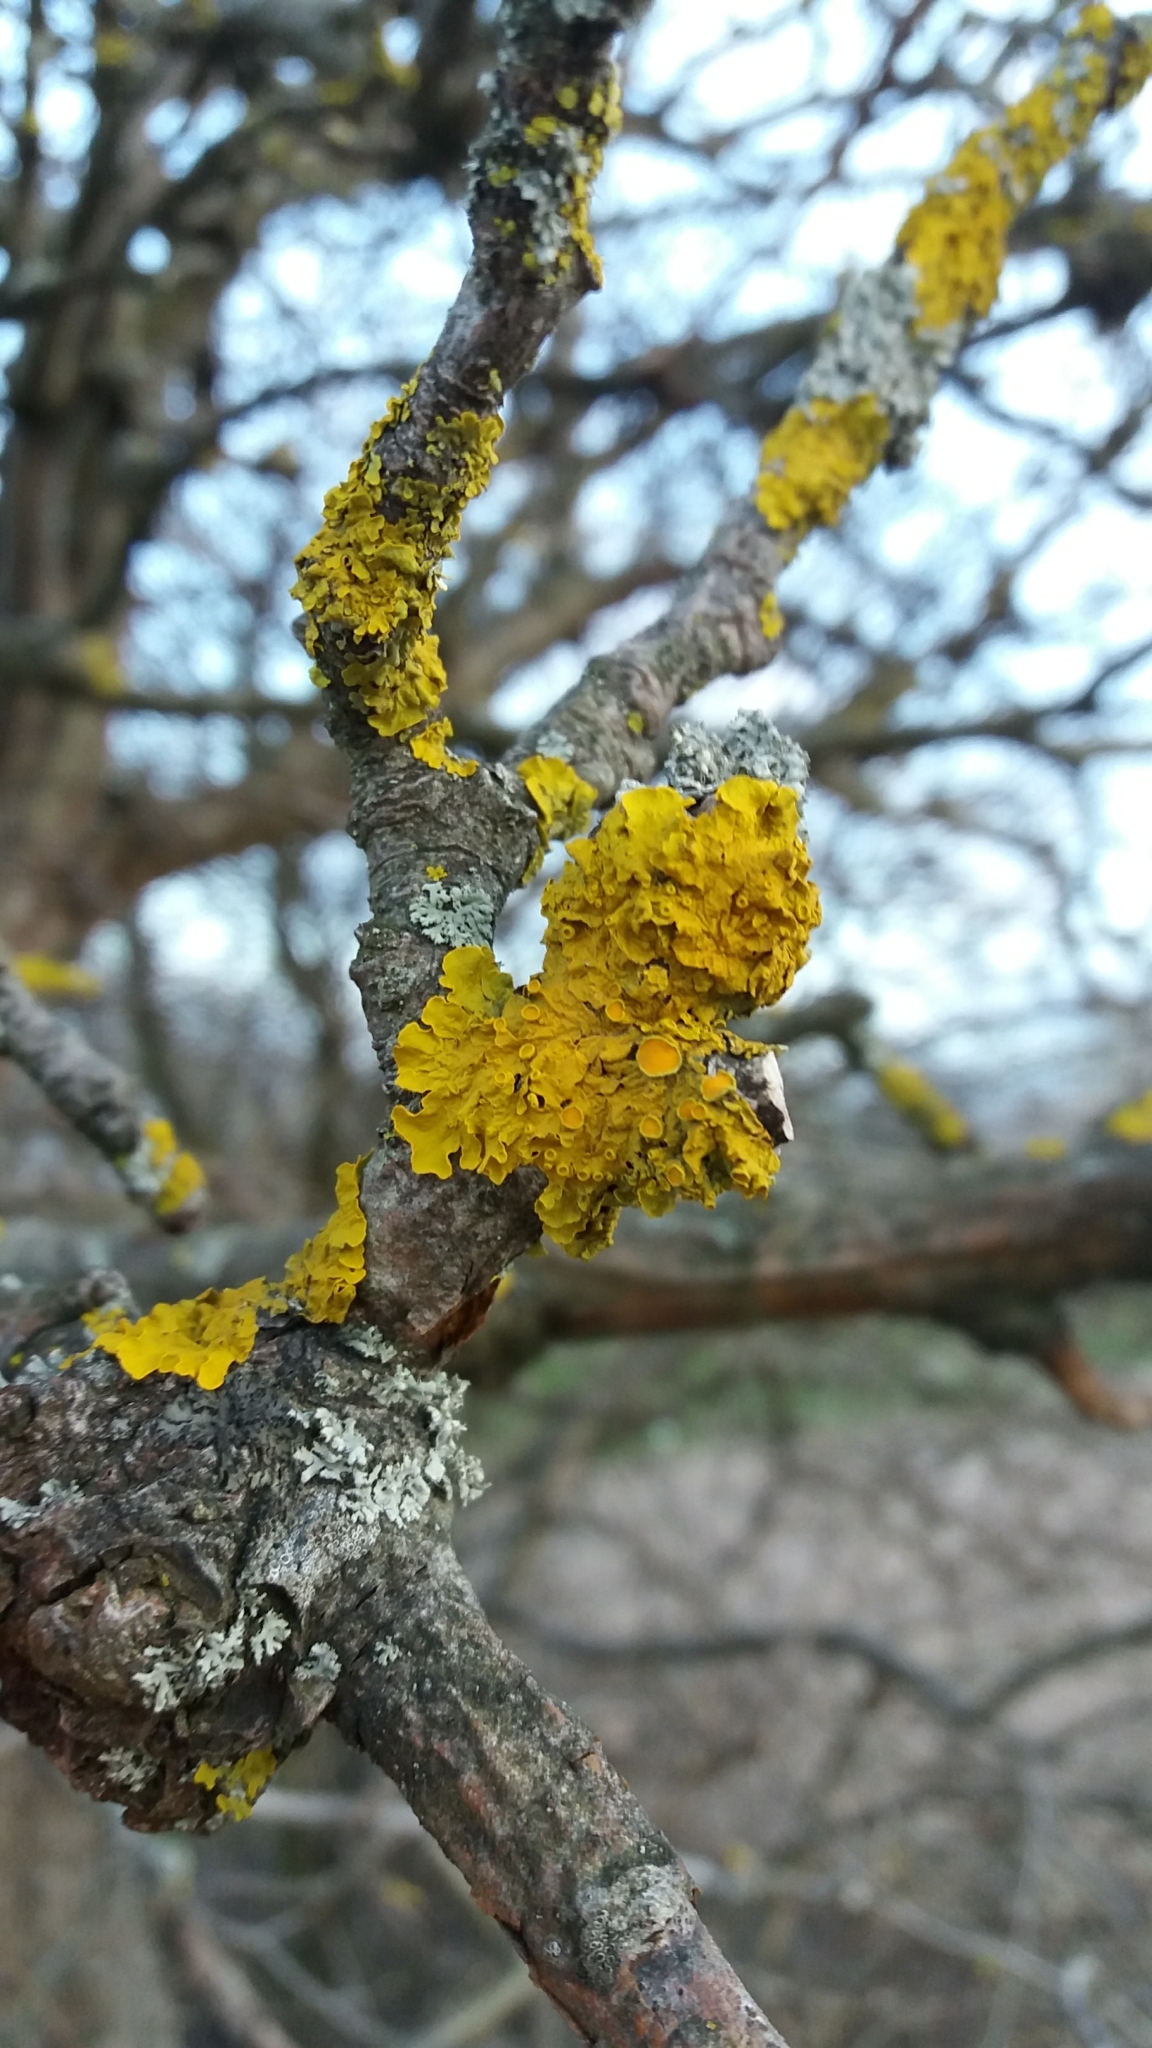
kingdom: Fungi
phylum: Ascomycota
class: Lecanoromycetes
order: Teloschistales
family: Teloschistaceae
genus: Xanthoria
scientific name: Xanthoria parietina
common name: Common orange lichen
